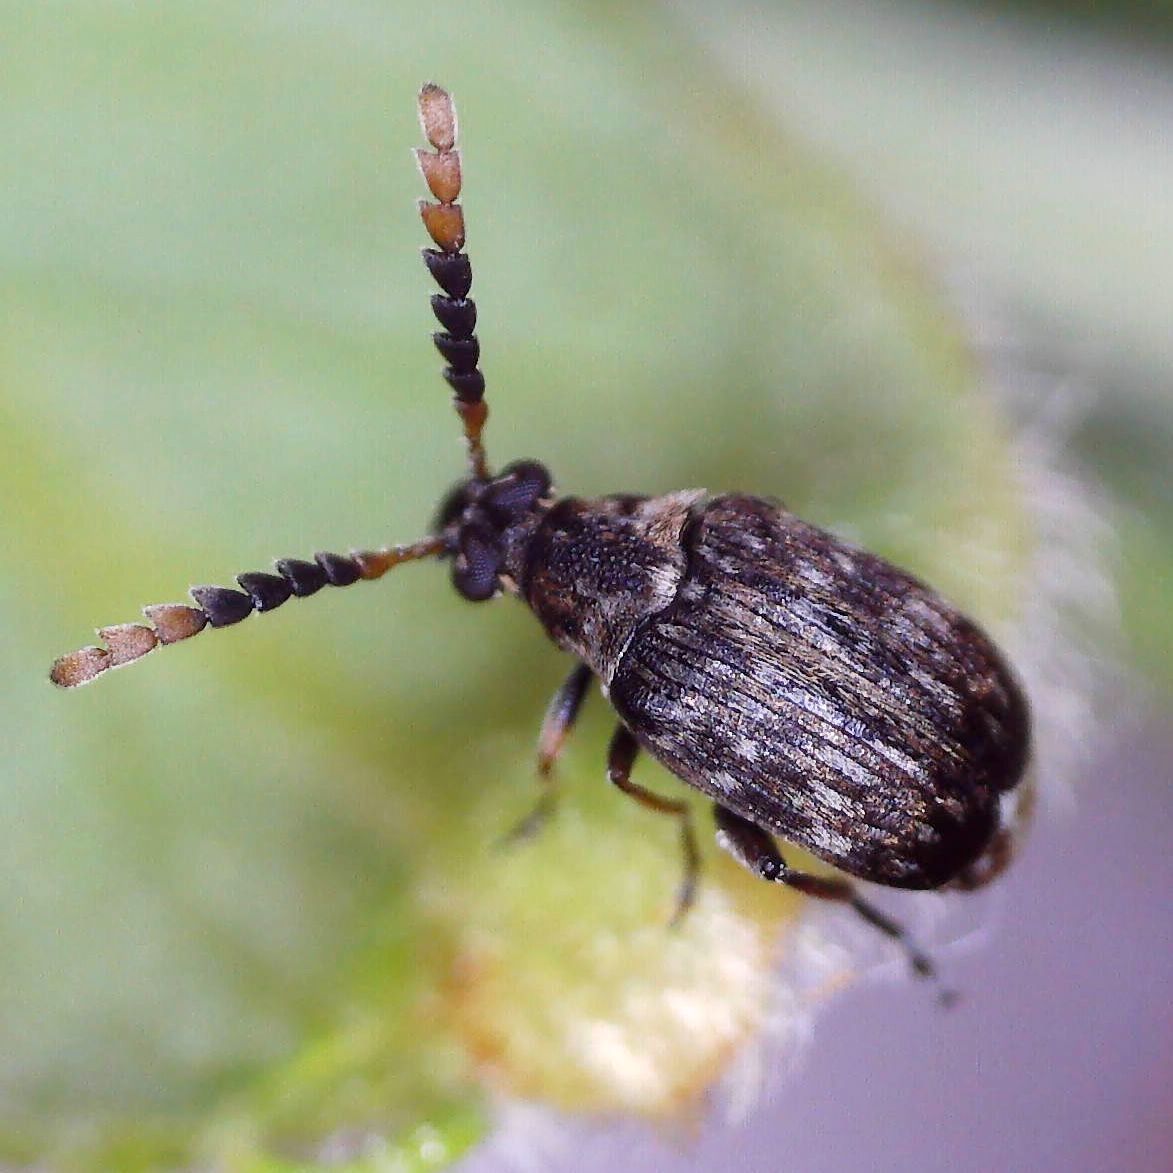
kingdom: Animalia
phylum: Arthropoda
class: Insecta
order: Coleoptera
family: Chrysomelidae
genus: Bruchidius
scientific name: Bruchidius varius
